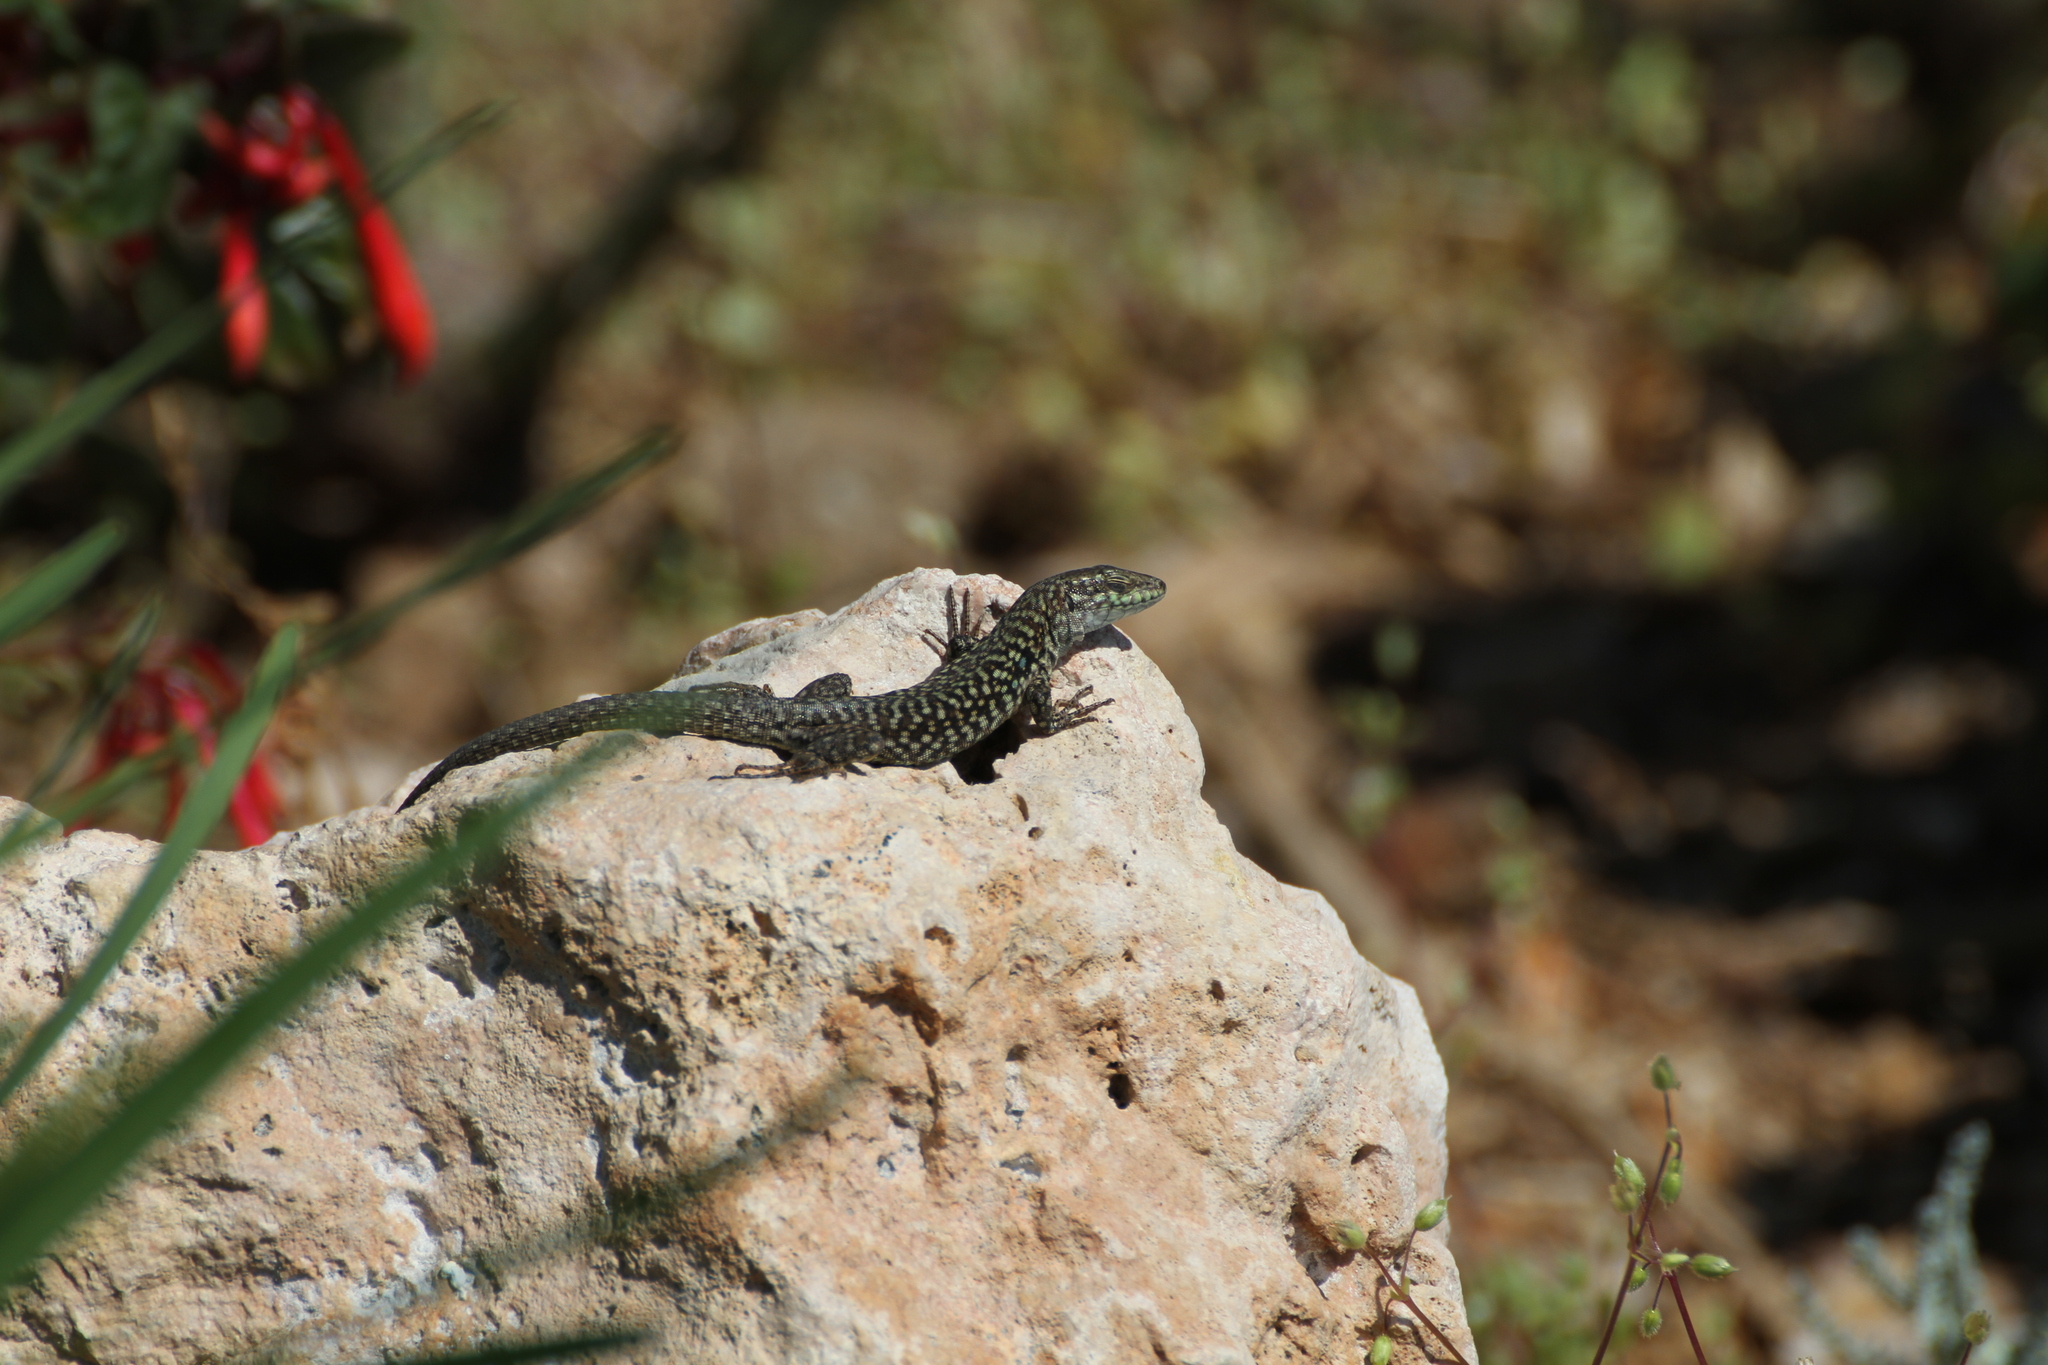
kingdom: Animalia
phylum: Chordata
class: Squamata
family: Lacertidae
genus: Podarcis
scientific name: Podarcis siculus
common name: Italian wall lizard
